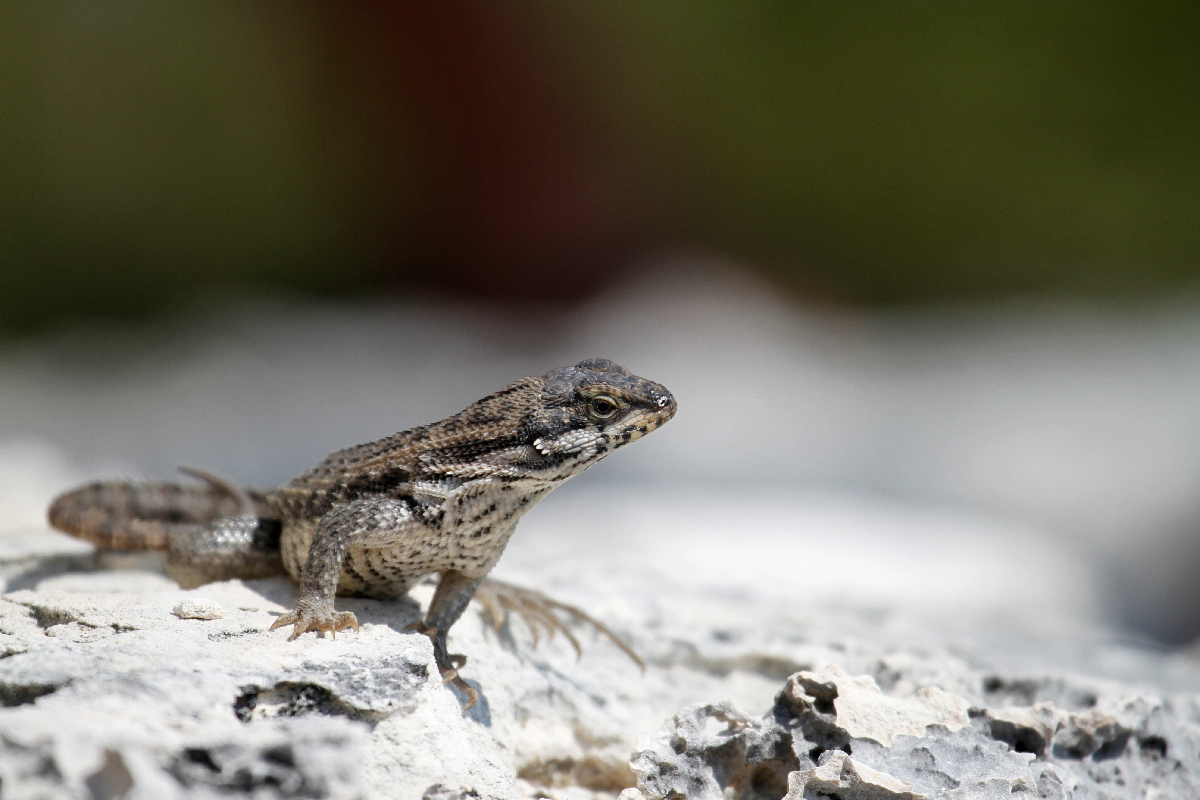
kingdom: Animalia
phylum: Chordata
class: Squamata
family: Leiocephalidae
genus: Leiocephalus
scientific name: Leiocephalus carinatus
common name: Northern curly-tailed lizard
